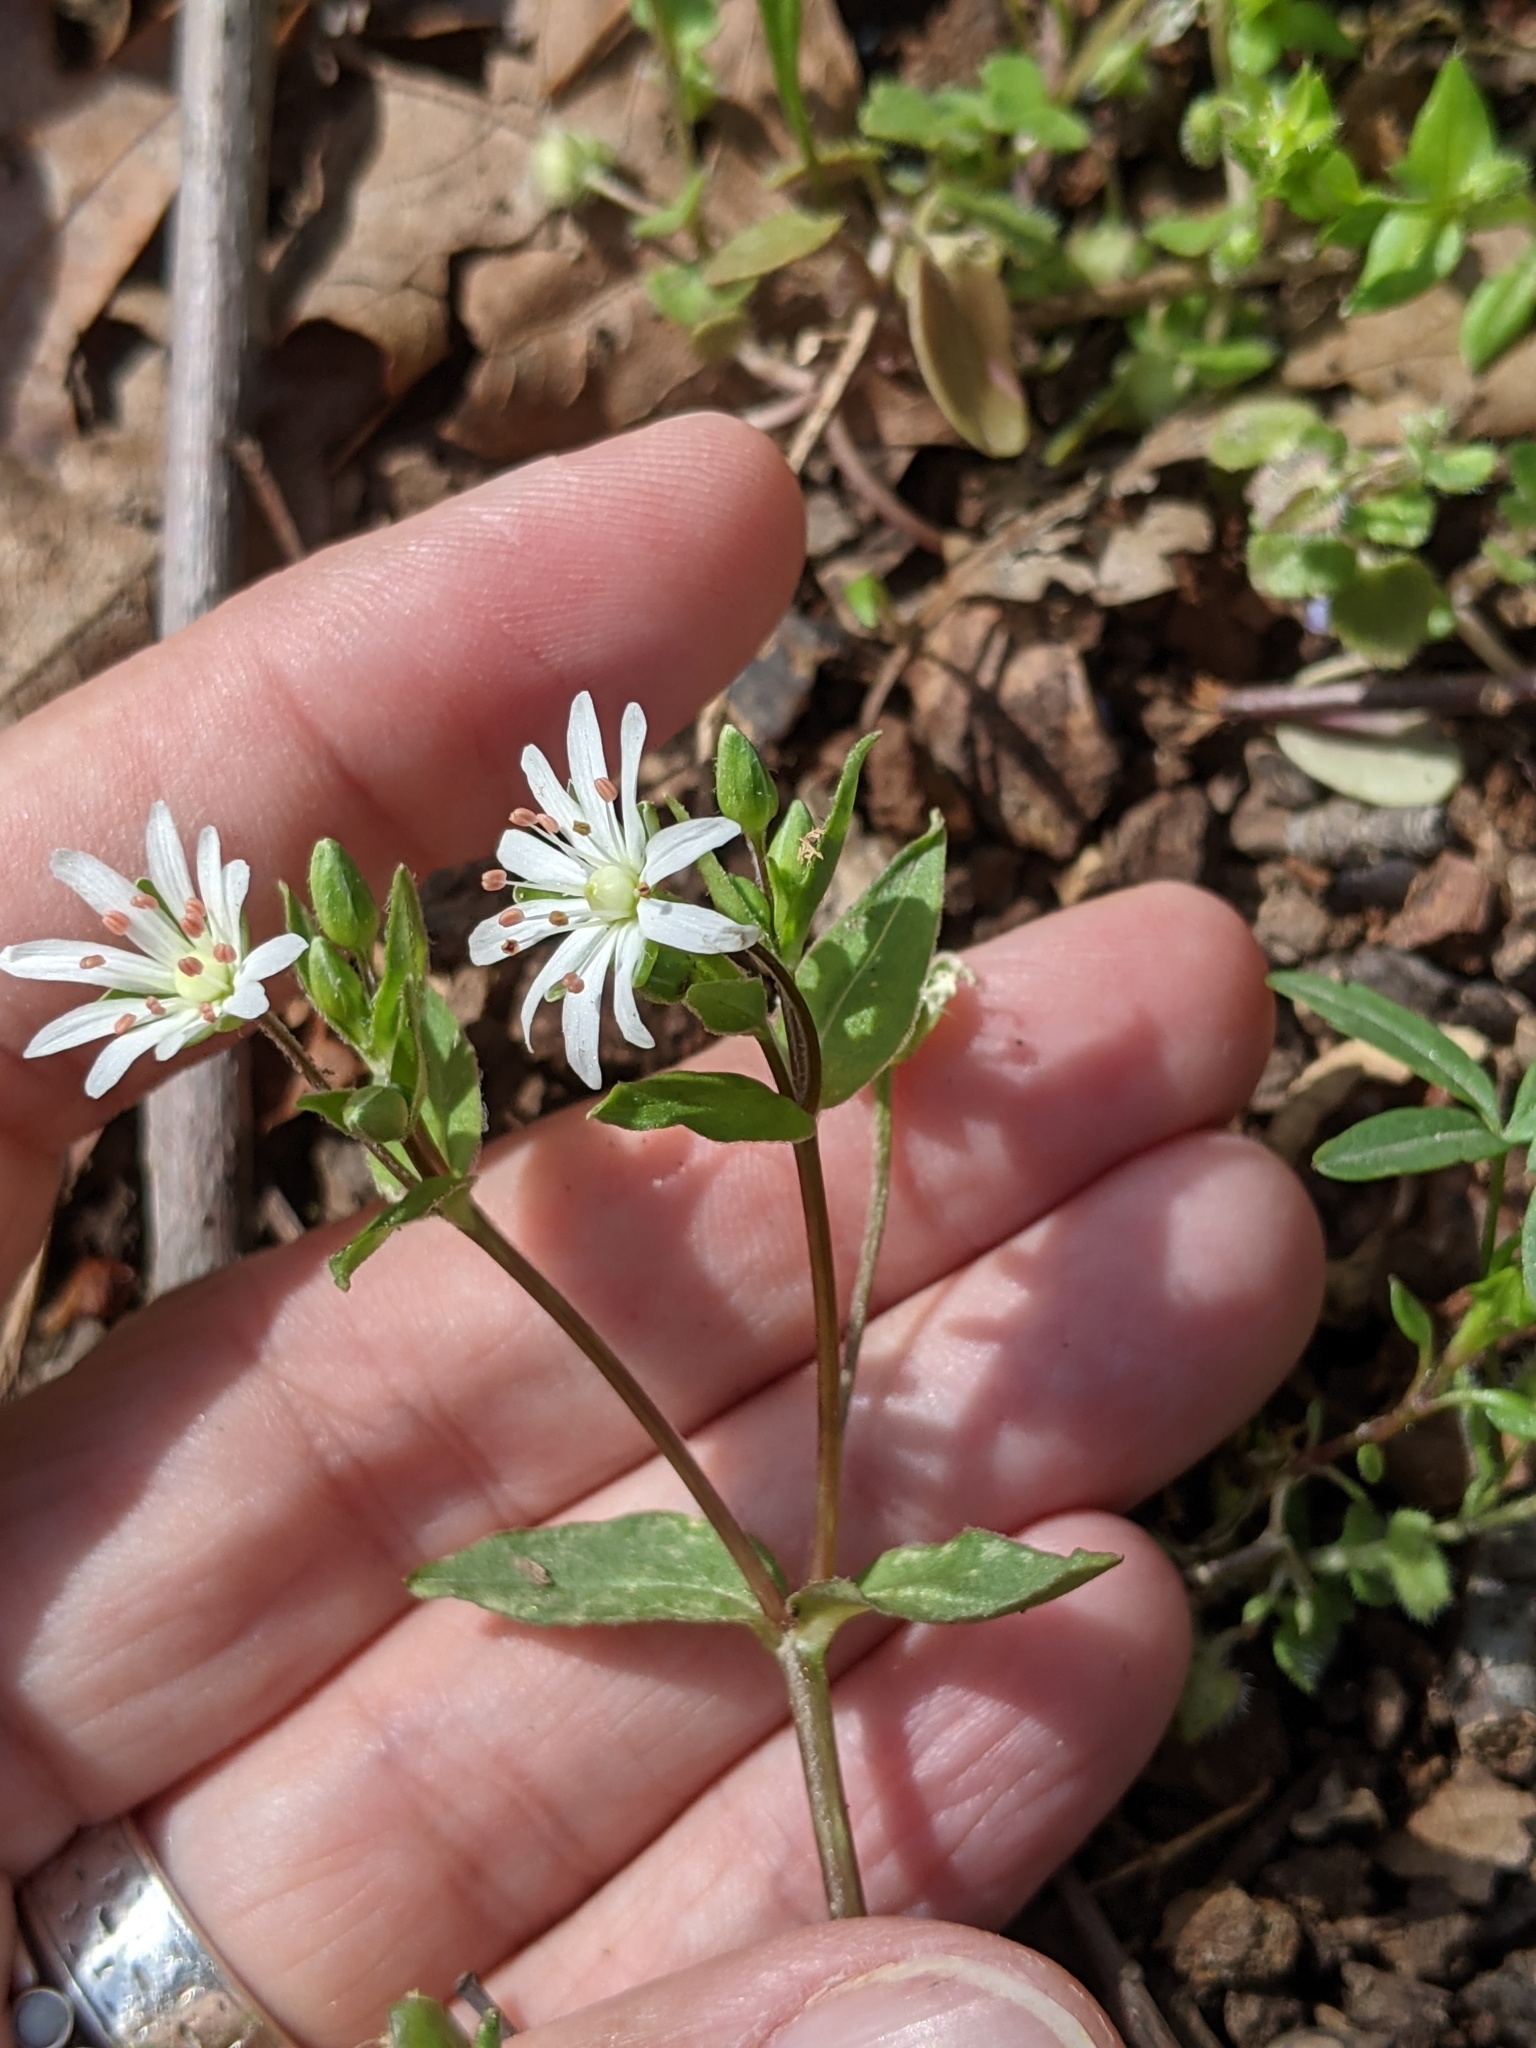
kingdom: Plantae
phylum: Tracheophyta
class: Magnoliopsida
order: Caryophyllales
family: Caryophyllaceae
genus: Stellaria
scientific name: Stellaria pubera
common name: Star chickweed
